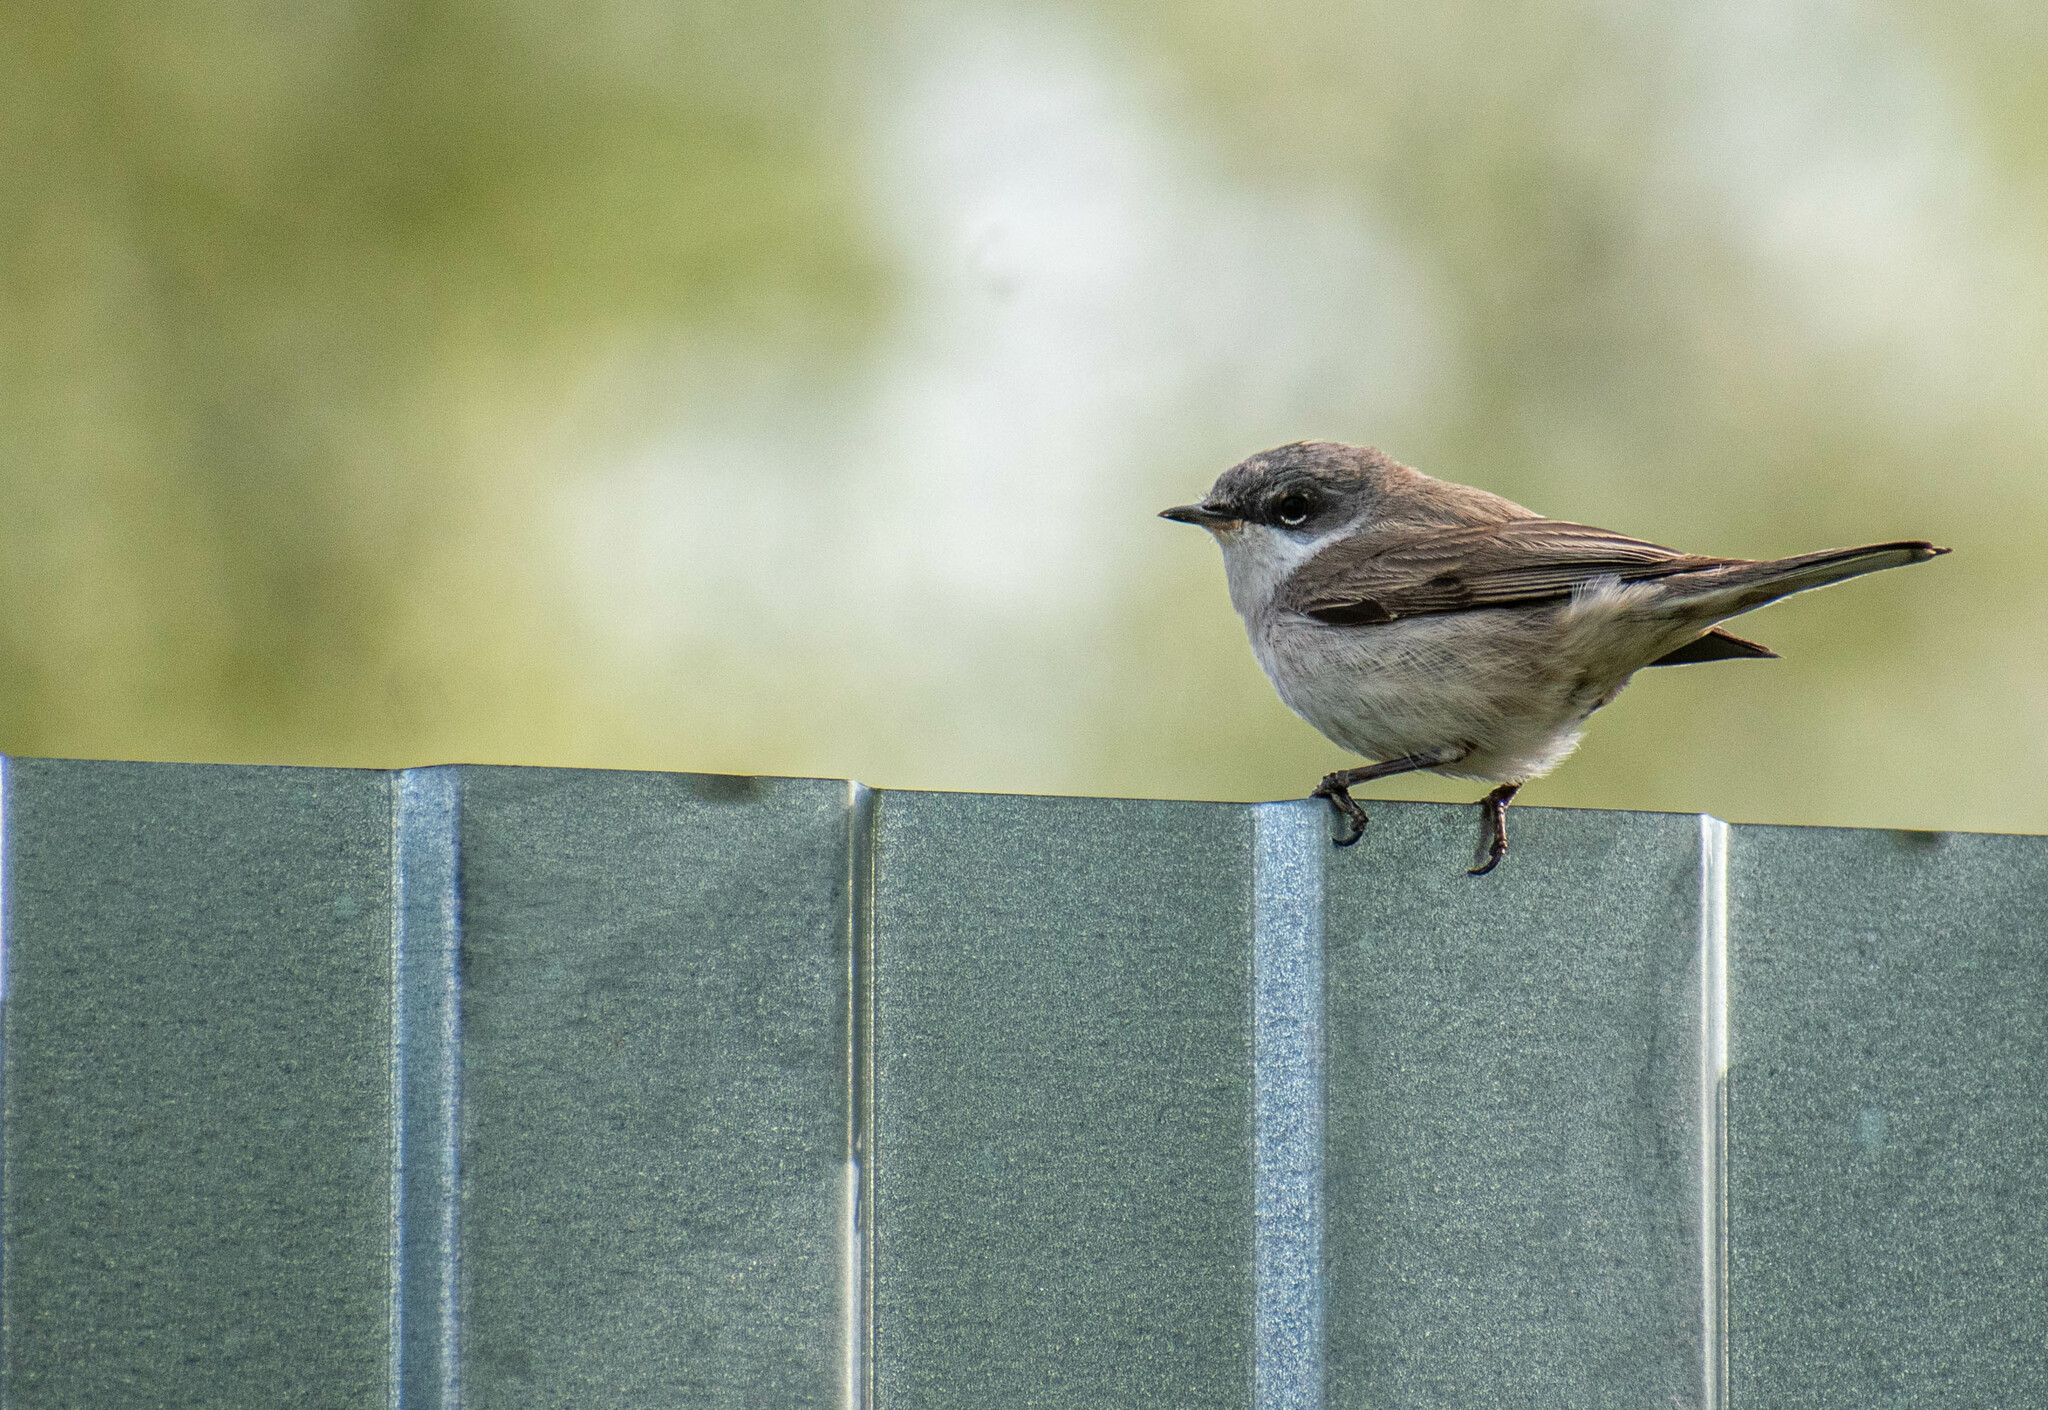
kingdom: Animalia
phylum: Chordata
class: Aves
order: Passeriformes
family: Sylviidae
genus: Sylvia
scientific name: Sylvia curruca
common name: Lesser whitethroat
